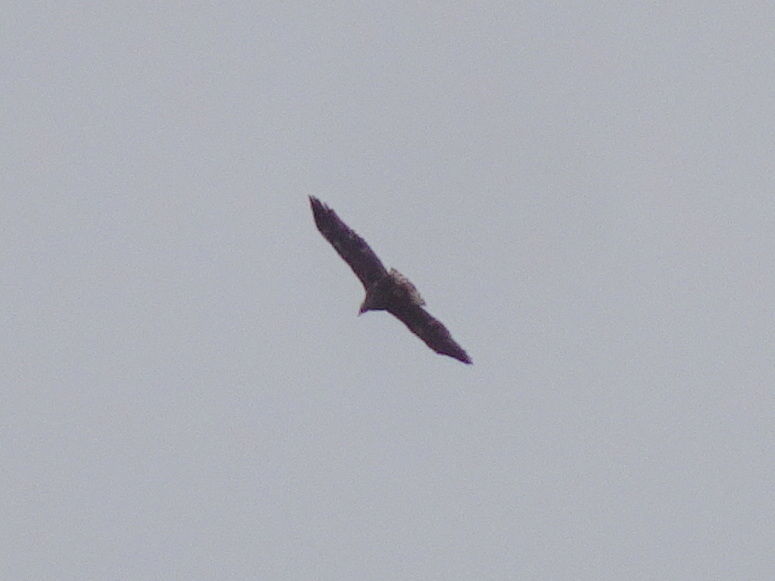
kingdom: Animalia
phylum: Chordata
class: Aves
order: Accipitriformes
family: Accipitridae
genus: Haliaeetus
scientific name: Haliaeetus leucocephalus
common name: Bald eagle
